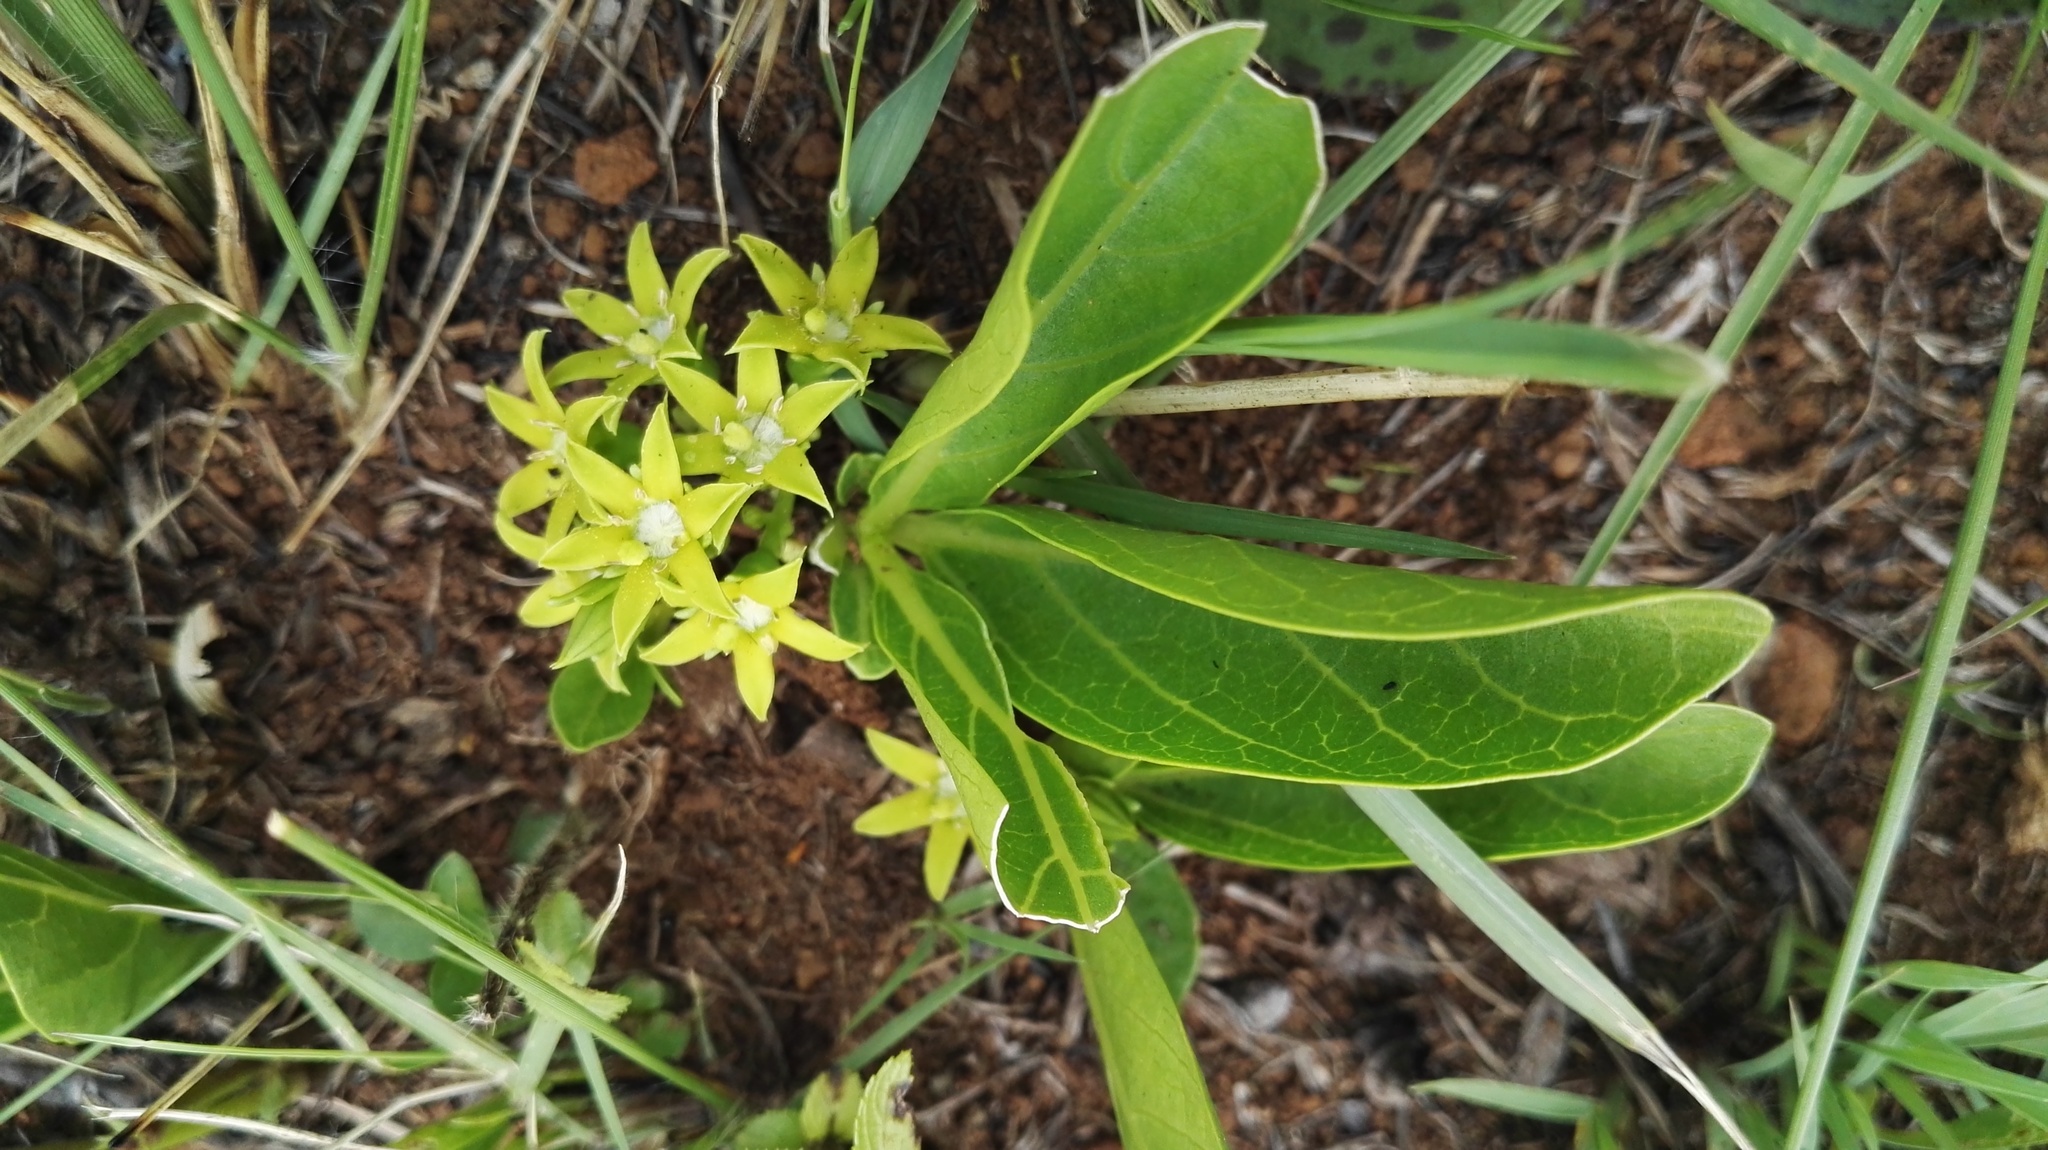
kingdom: Plantae
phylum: Tracheophyta
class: Magnoliopsida
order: Gentianales
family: Rubiaceae
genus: Bridsonia
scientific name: Bridsonia chamaedendrum
